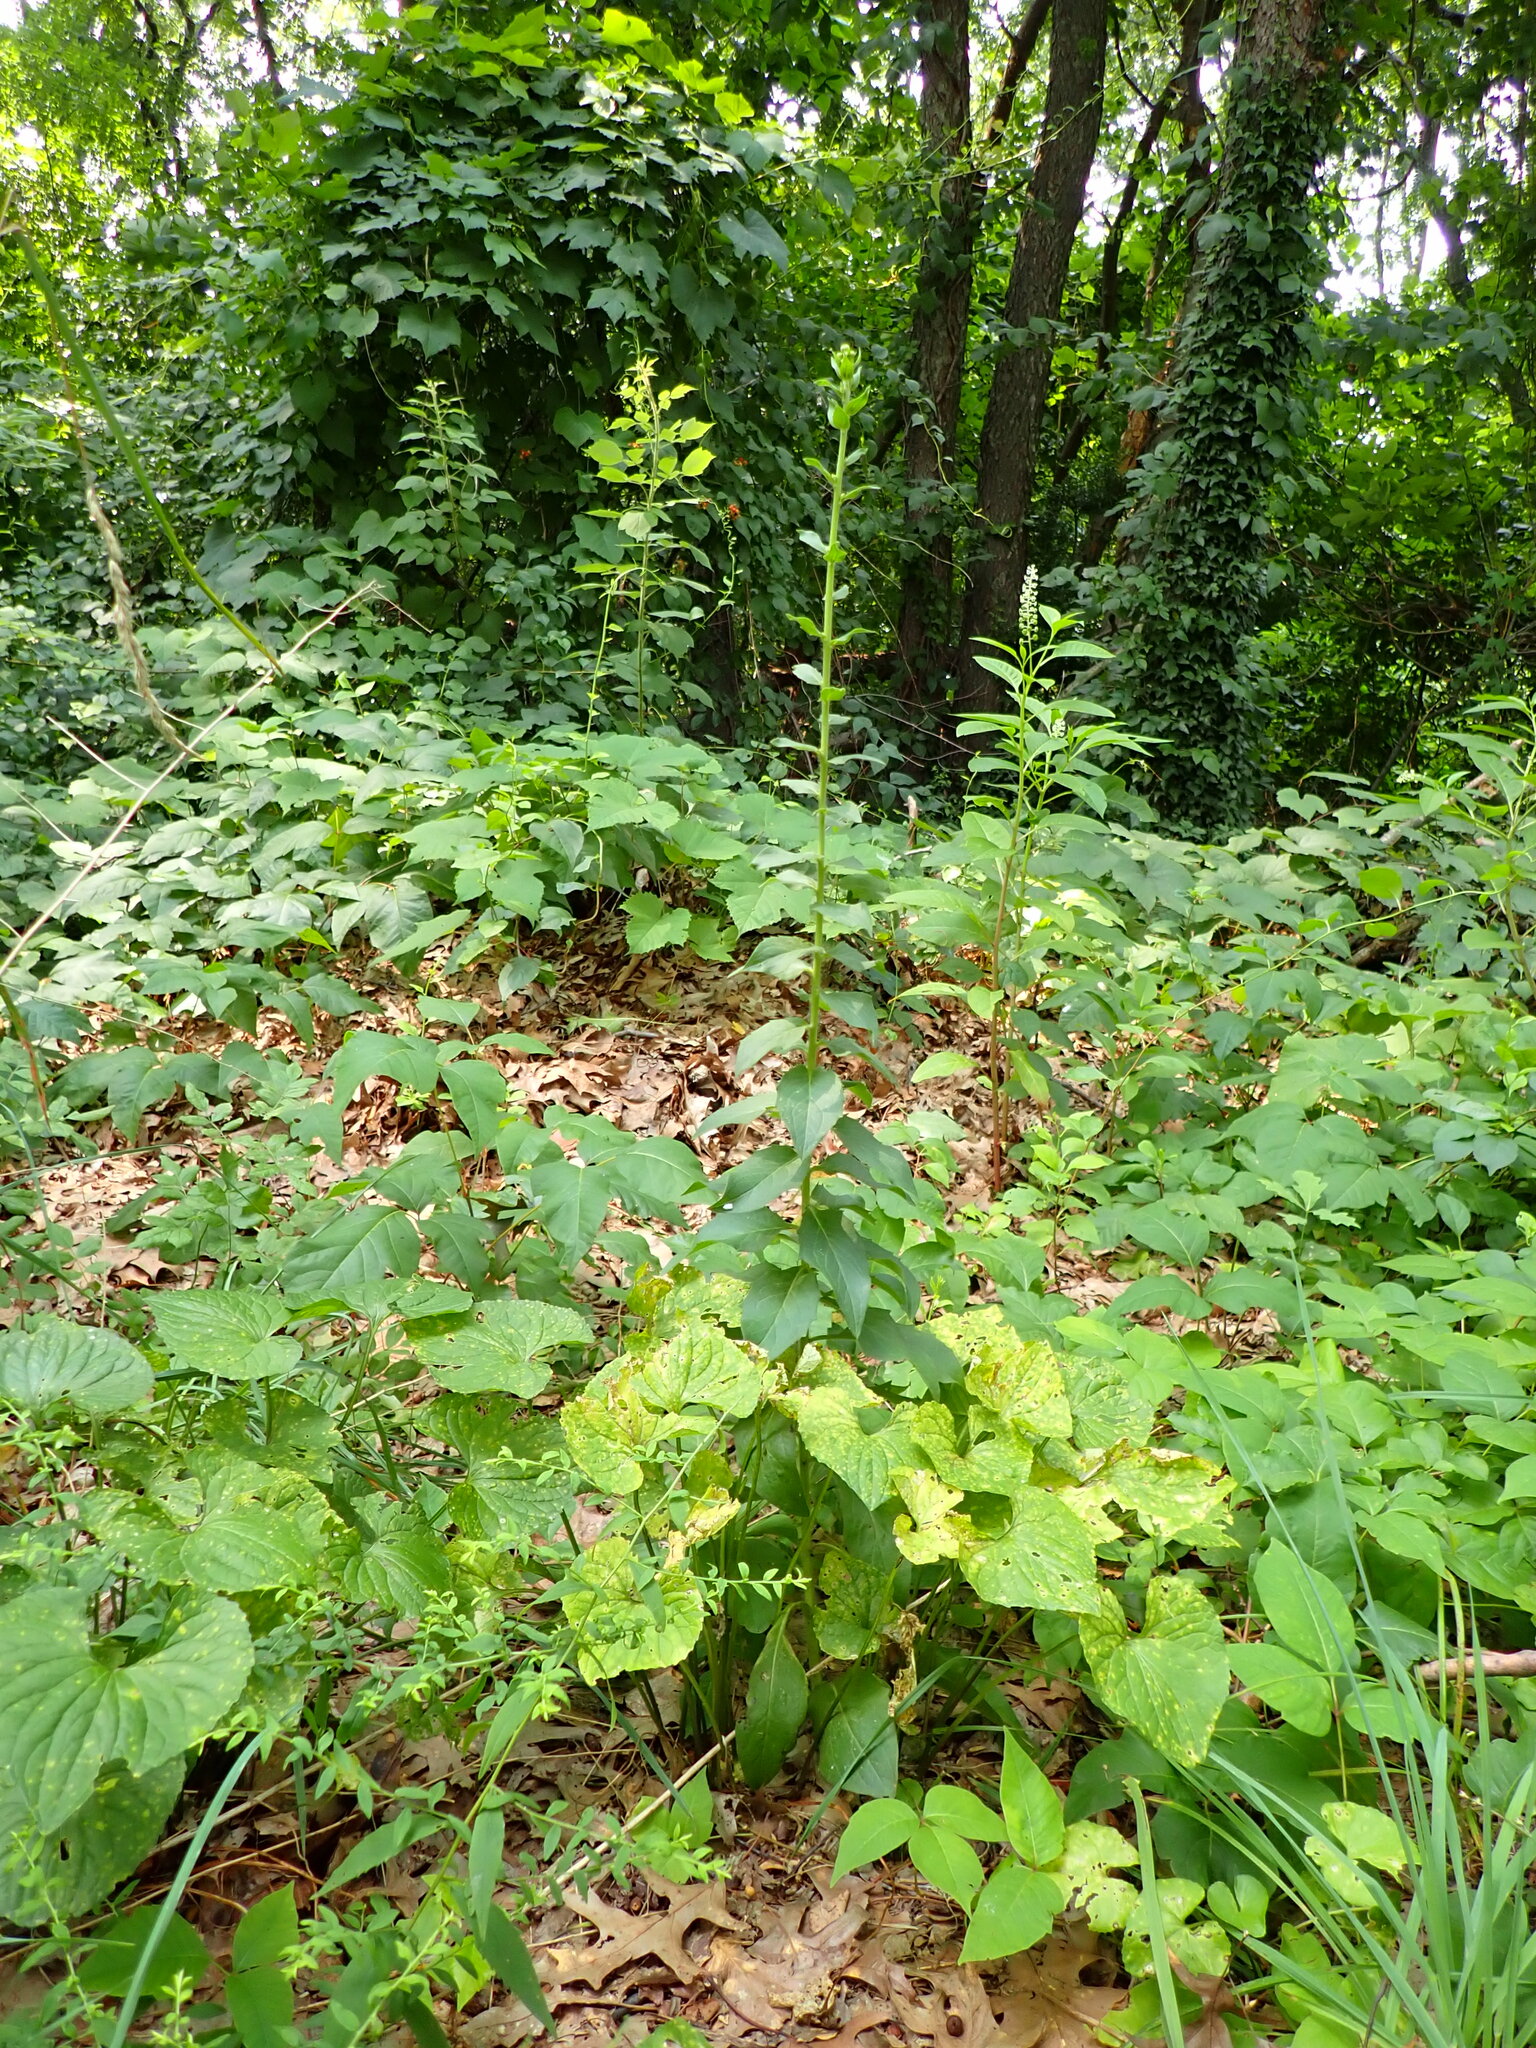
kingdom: Plantae
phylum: Tracheophyta
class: Magnoliopsida
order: Asterales
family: Asteraceae
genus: Hieracium
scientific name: Hieracium sabaudum
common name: New england hawkweed
